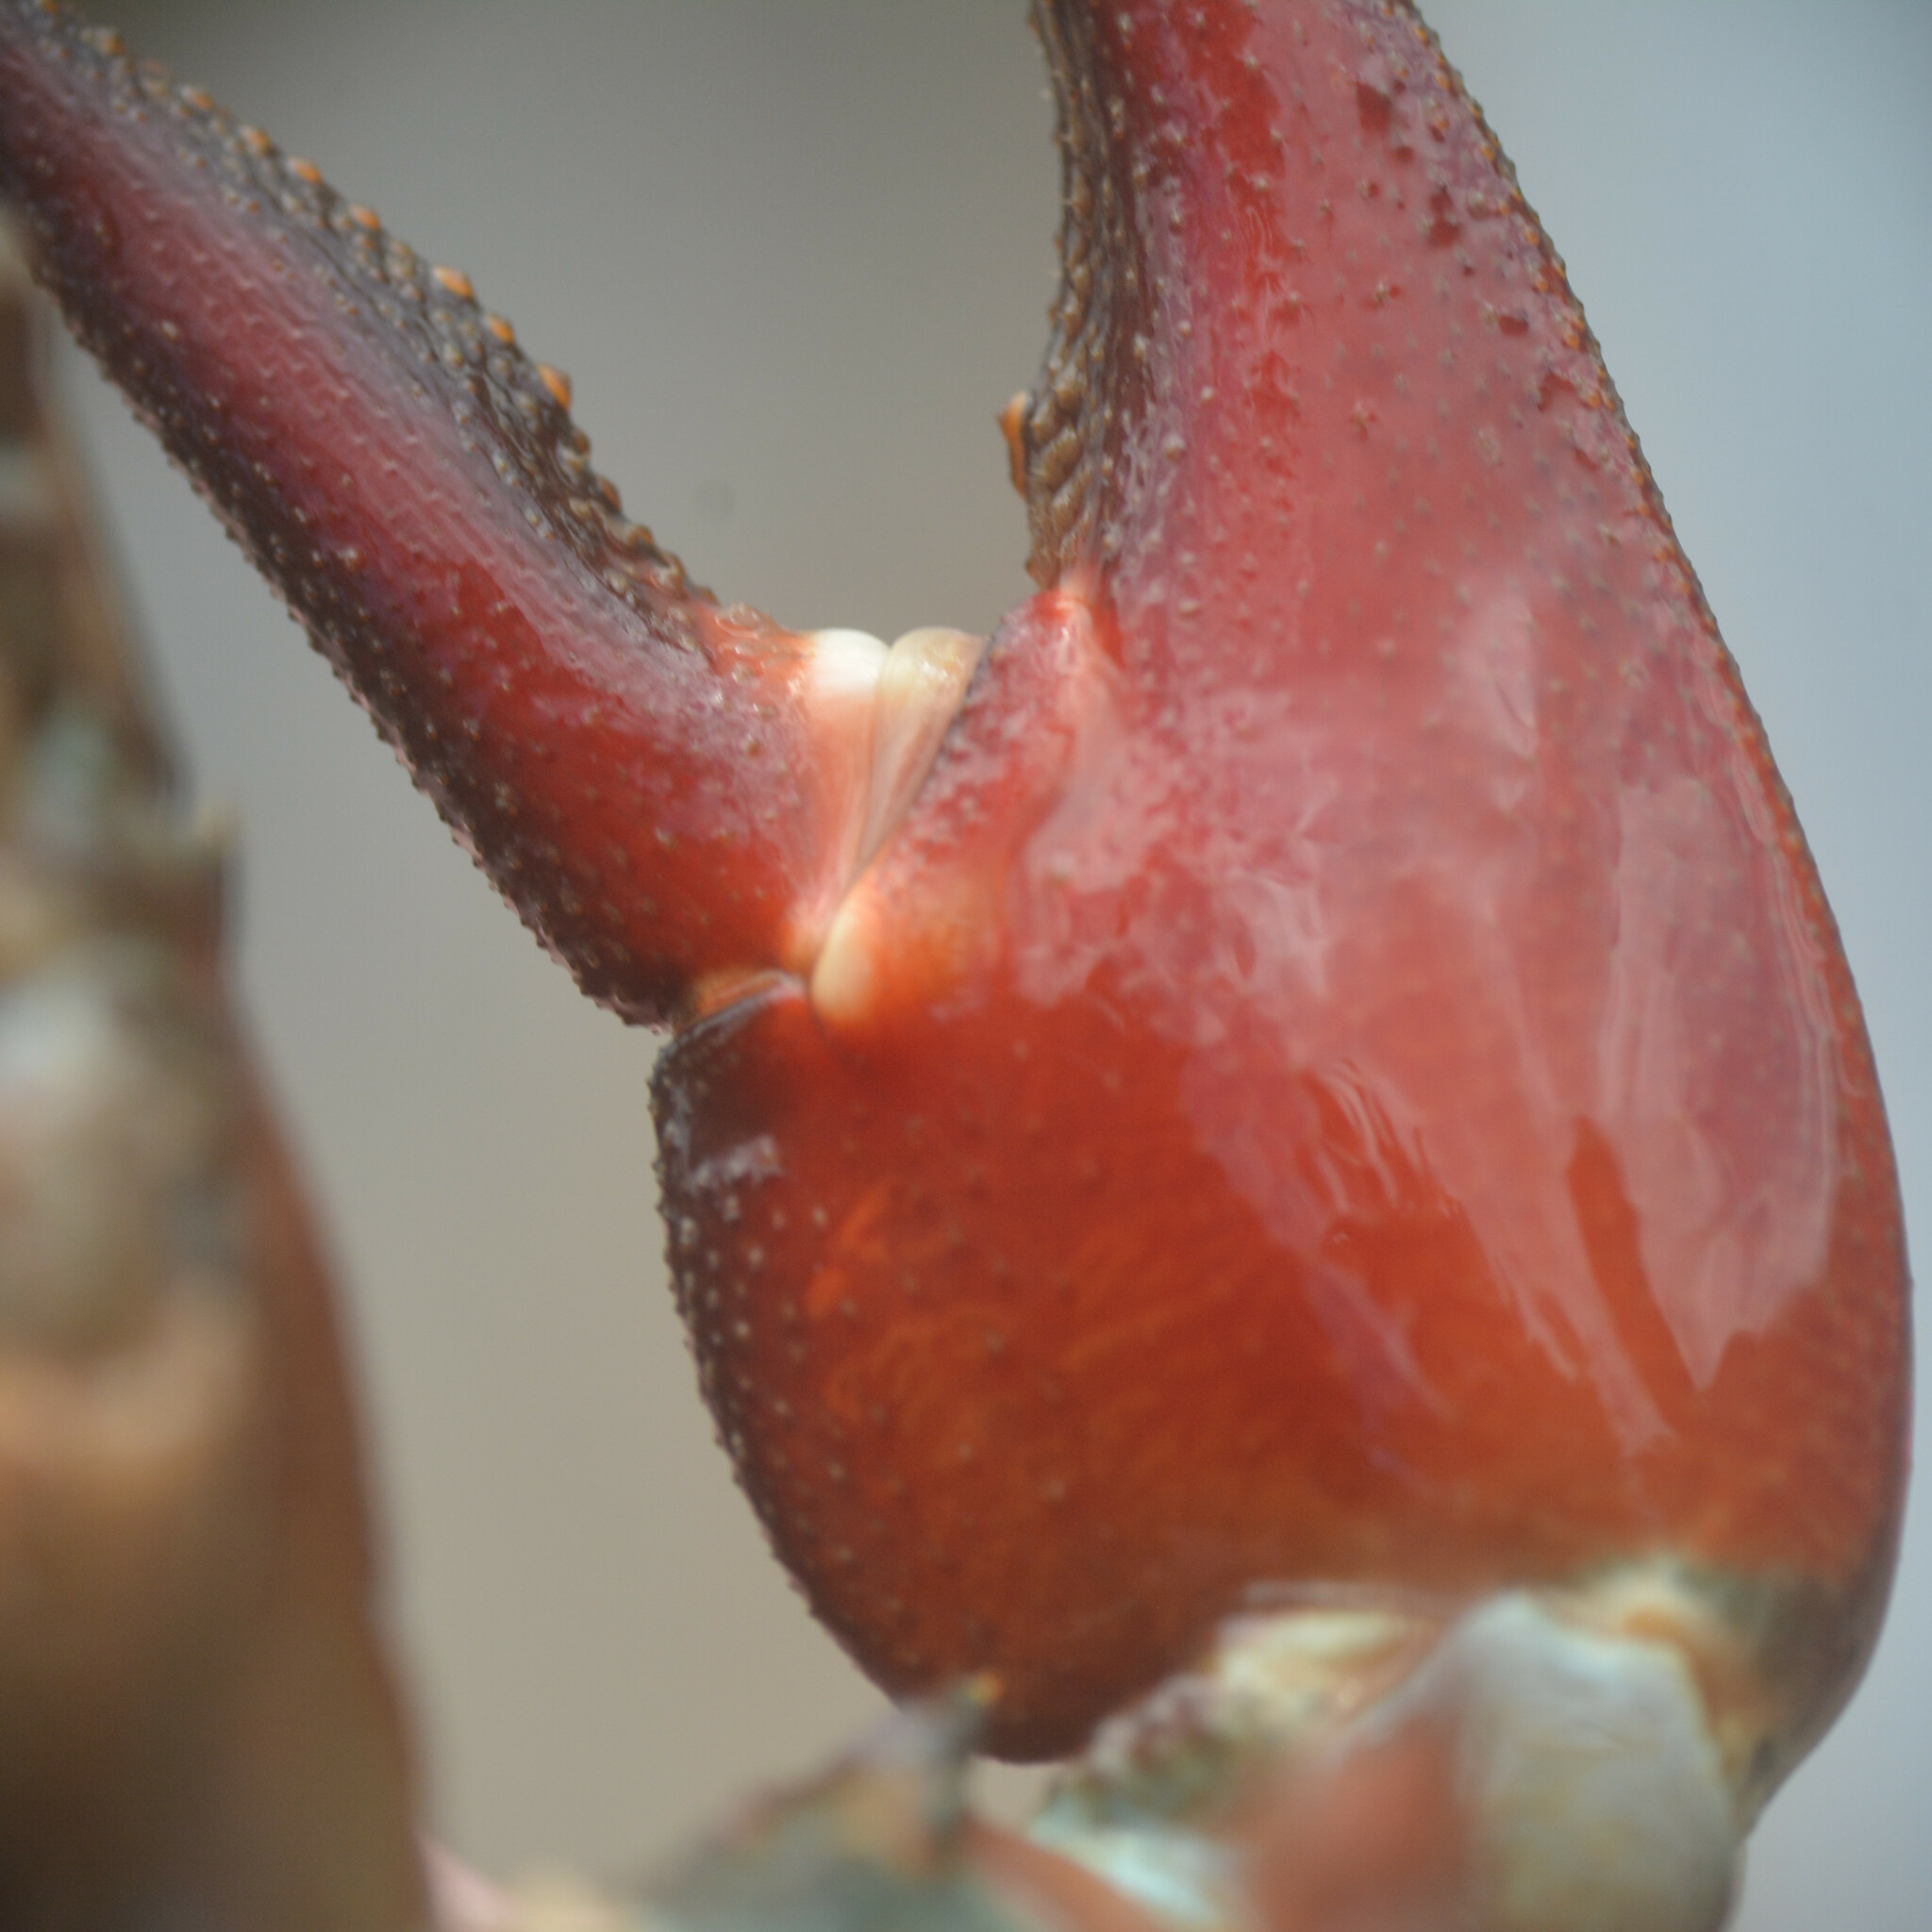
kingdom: Animalia
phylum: Arthropoda
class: Malacostraca
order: Decapoda
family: Astacidae
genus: Pacifastacus
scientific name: Pacifastacus leniusculus
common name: Signal crayfish
